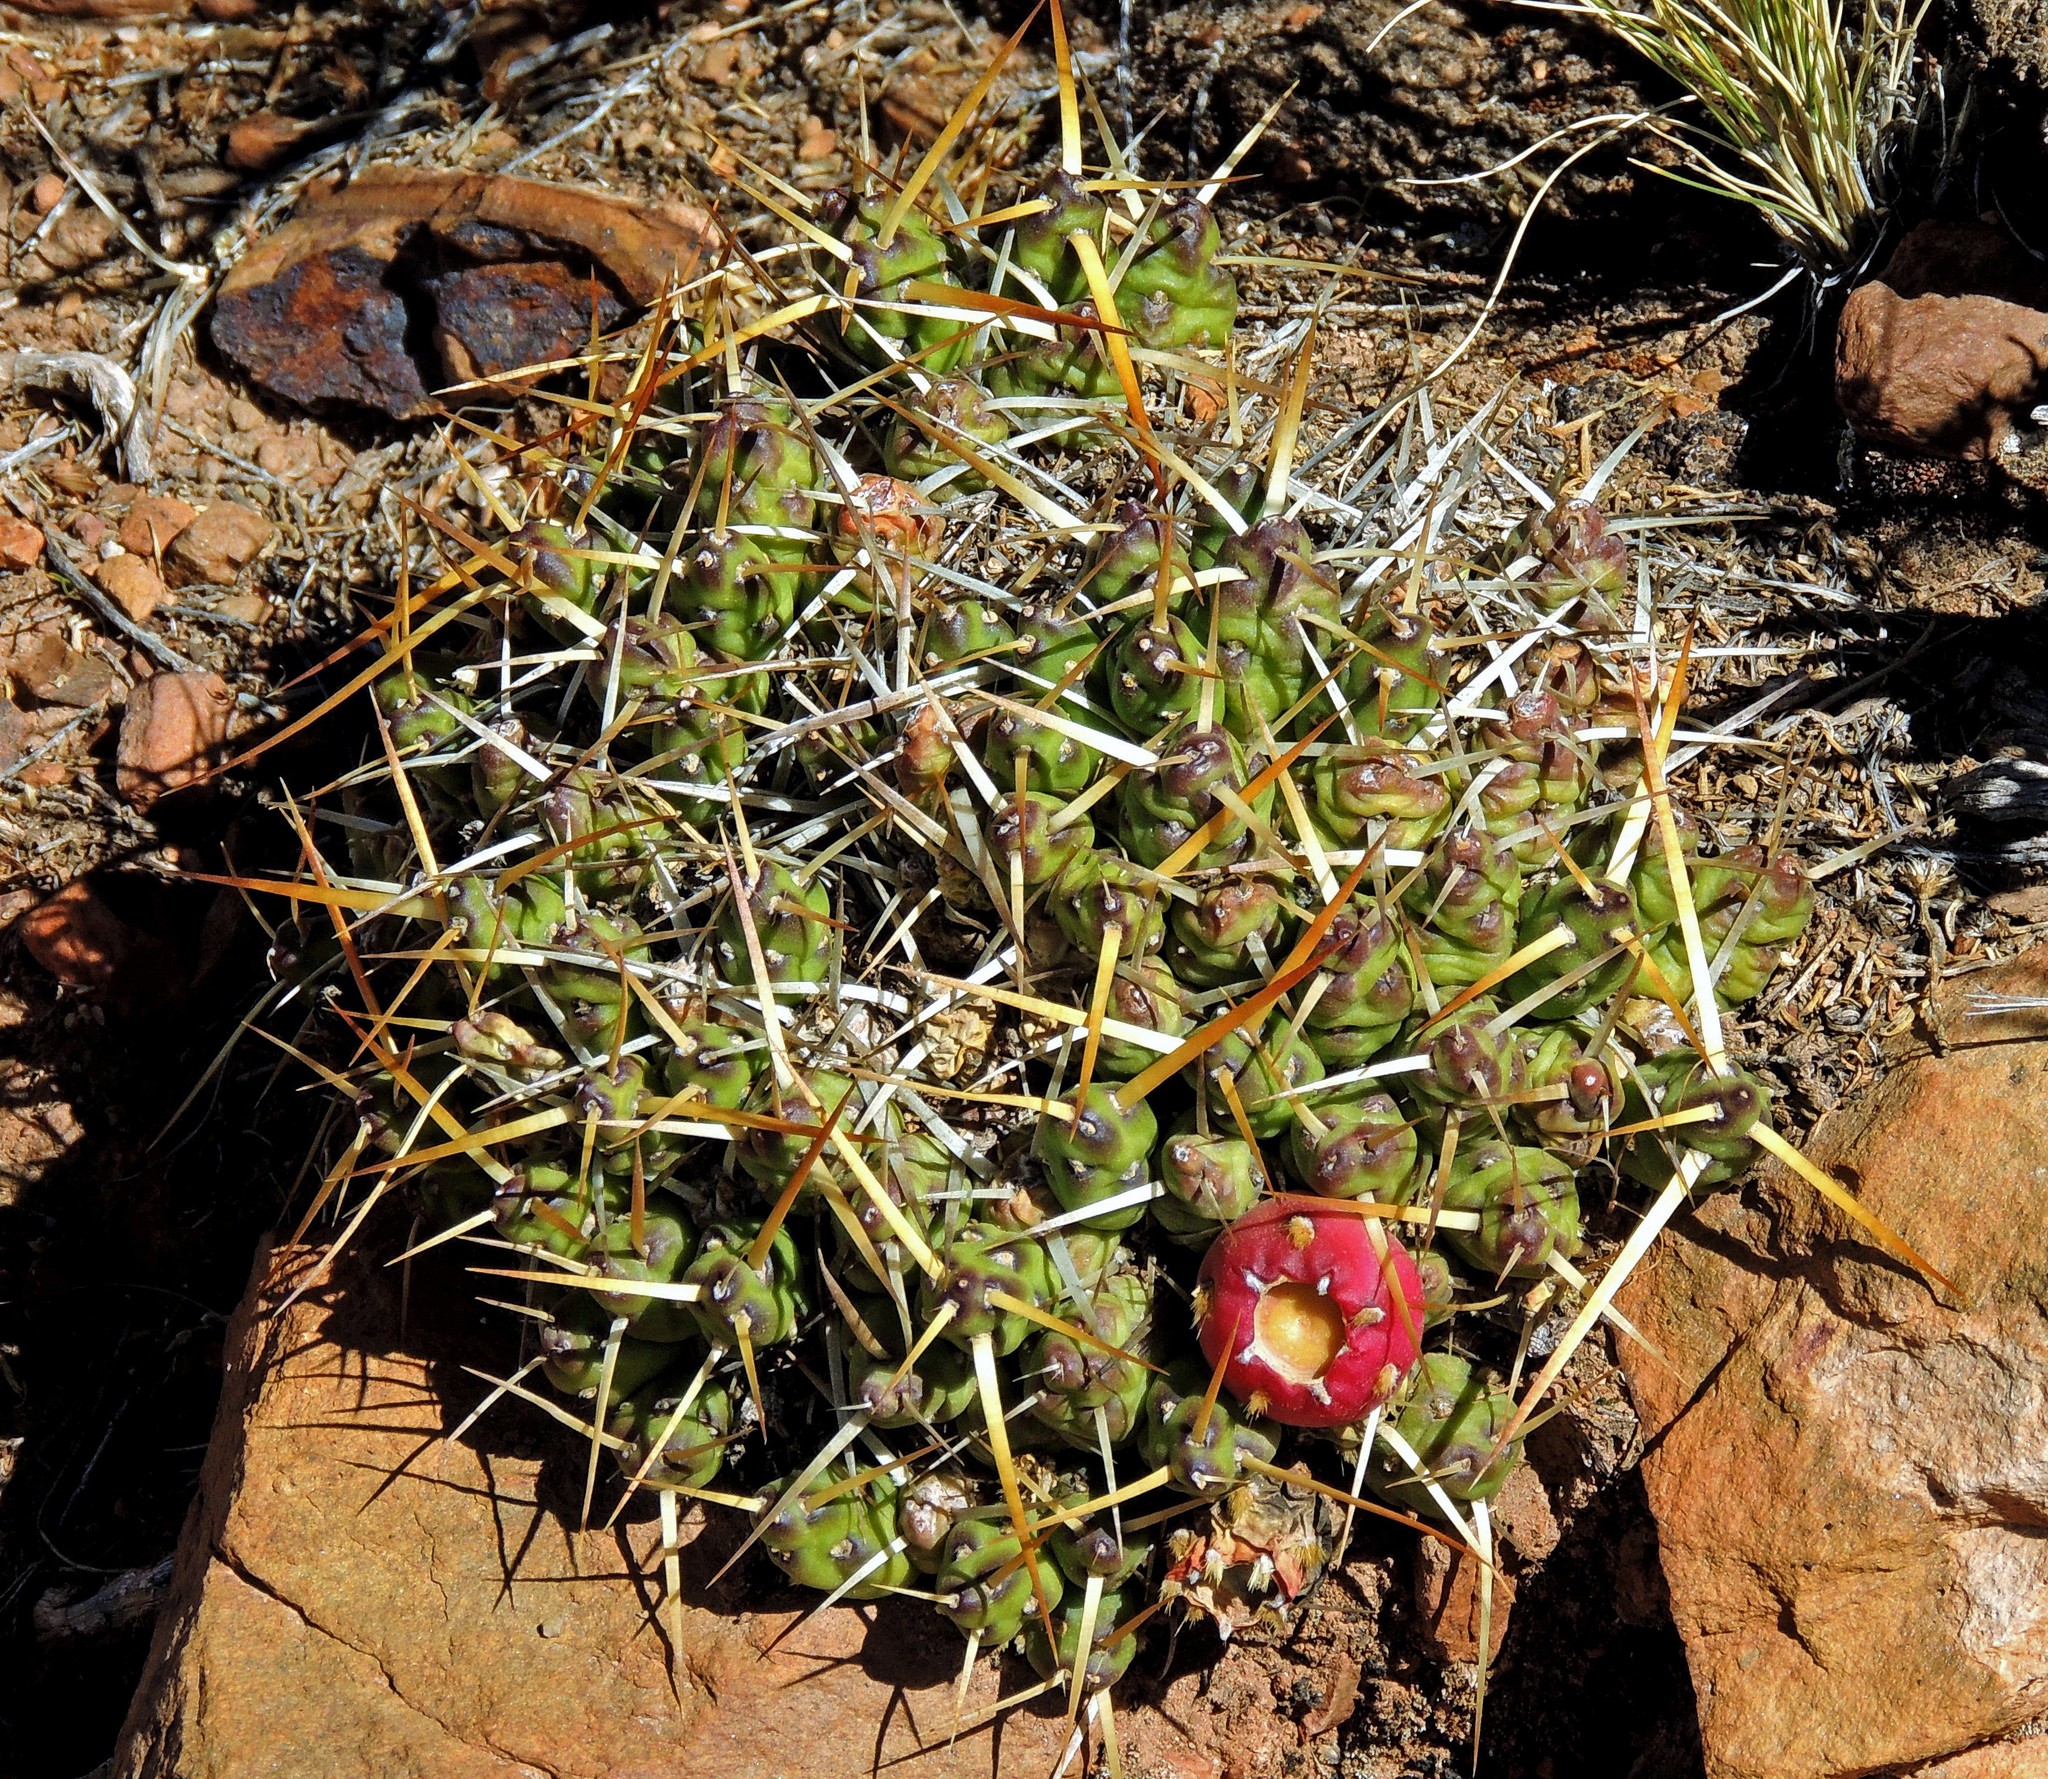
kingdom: Plantae
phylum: Tracheophyta
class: Magnoliopsida
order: Caryophyllales
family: Cactaceae
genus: Maihueniopsis
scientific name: Maihueniopsis glomerata
